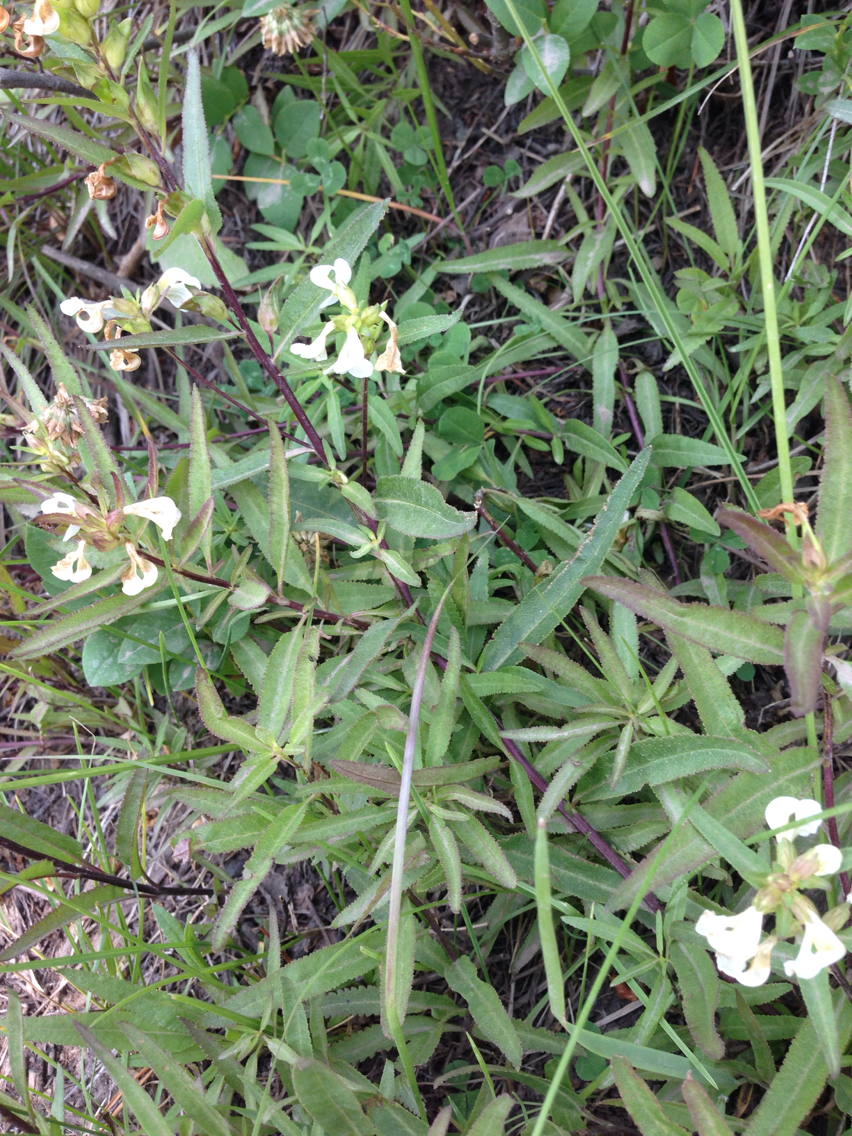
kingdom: Plantae
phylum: Tracheophyta
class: Magnoliopsida
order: Lamiales
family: Orobanchaceae
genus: Pedicularis
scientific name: Pedicularis racemosa
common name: Leafy lousewort
